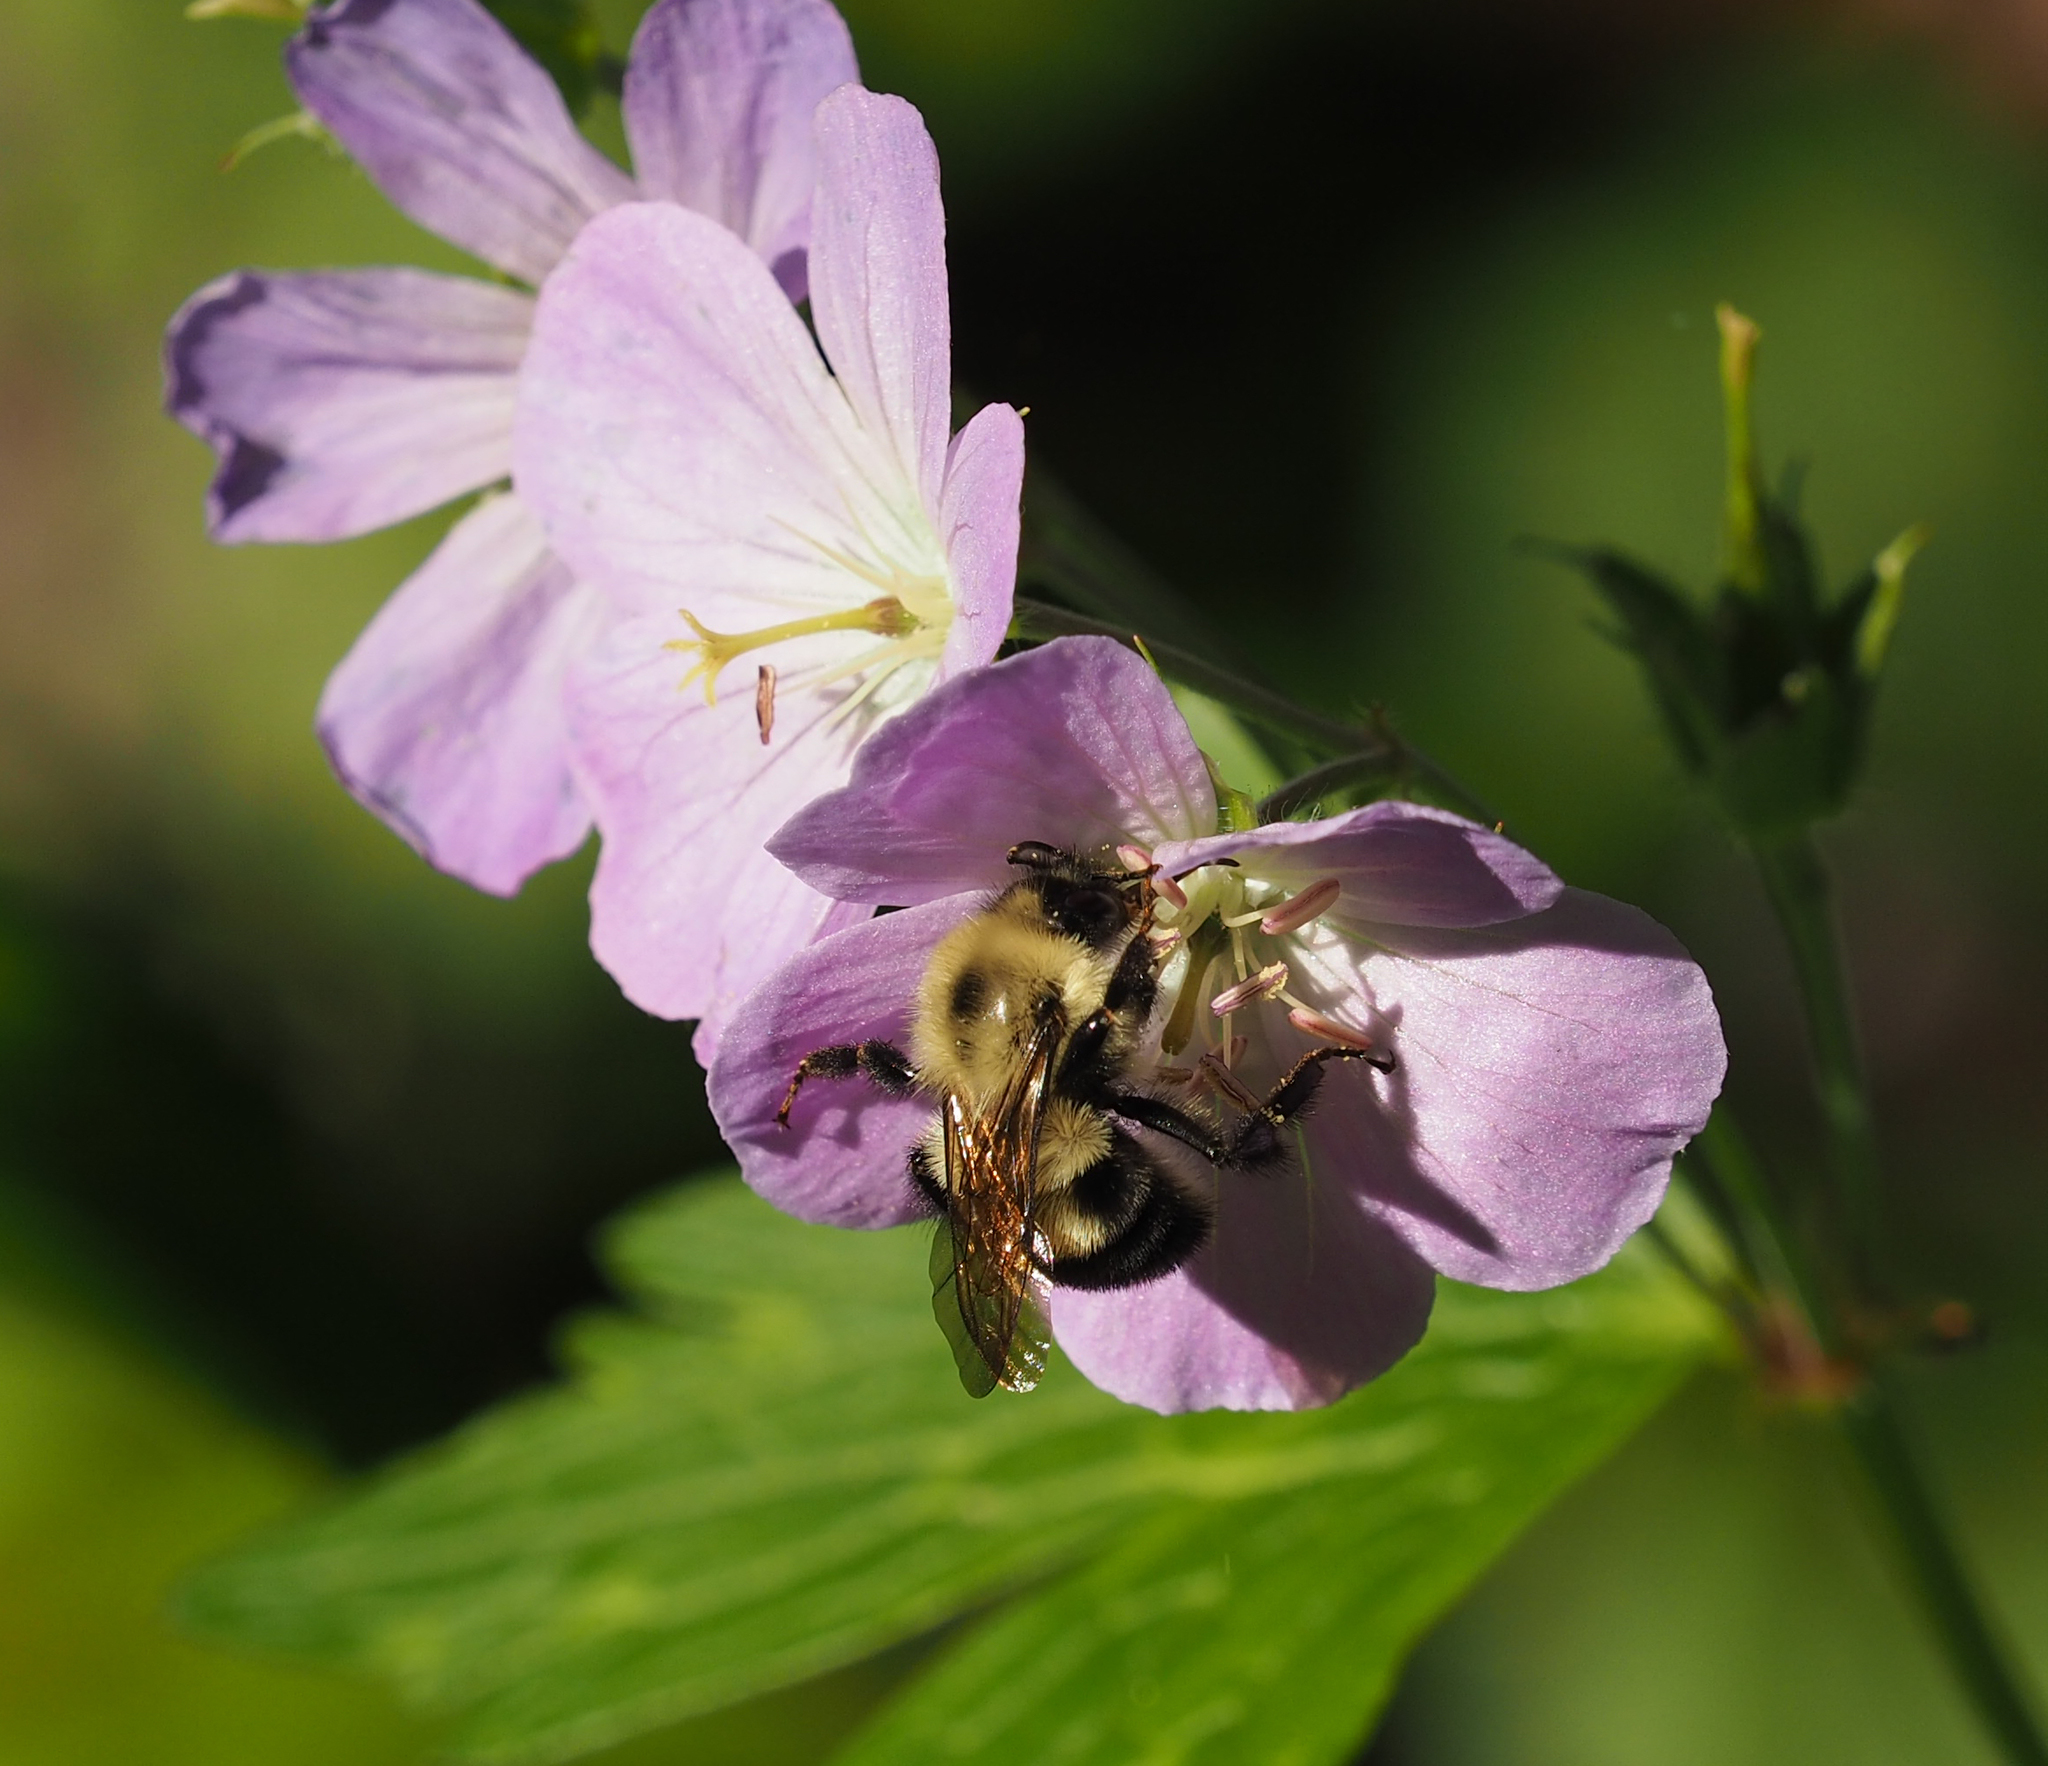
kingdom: Animalia
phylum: Arthropoda
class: Insecta
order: Hymenoptera
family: Apidae
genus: Bombus
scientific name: Bombus bimaculatus
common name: Two-spotted bumble bee
